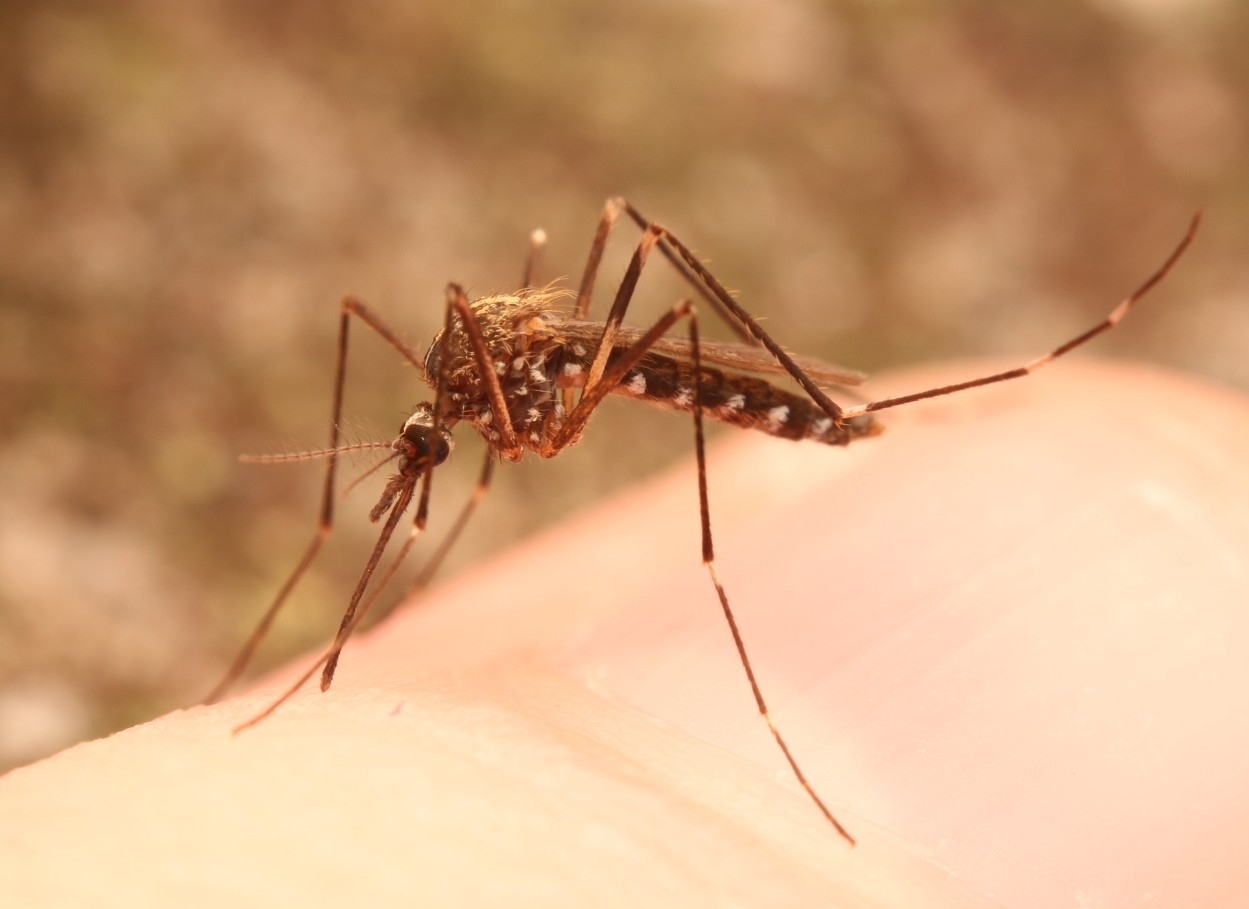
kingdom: Animalia
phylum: Arthropoda
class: Insecta
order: Diptera
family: Culicidae
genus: Aedes
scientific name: Aedes japonicus
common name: Asian bush mosquito
